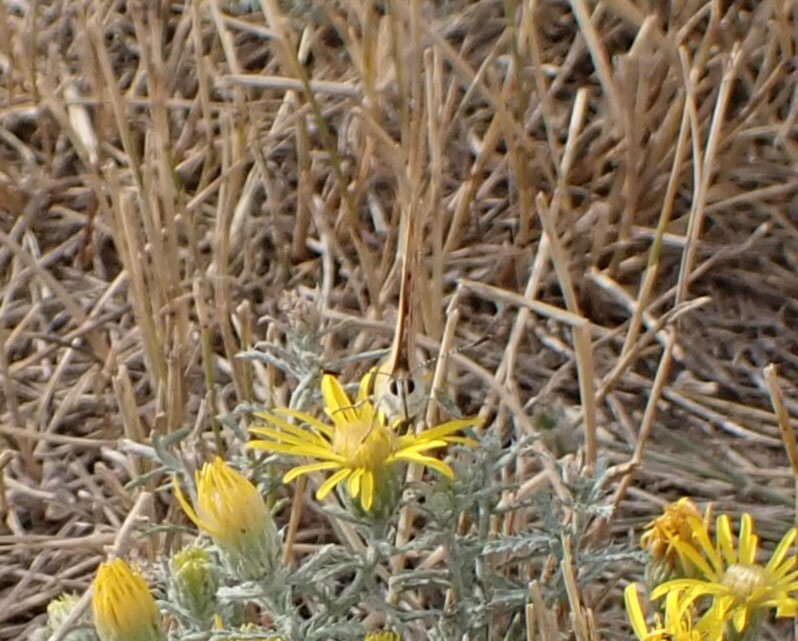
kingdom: Animalia
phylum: Arthropoda
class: Insecta
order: Lepidoptera
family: Lycaenidae
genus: Tharsalea
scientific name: Tharsalea helloides
